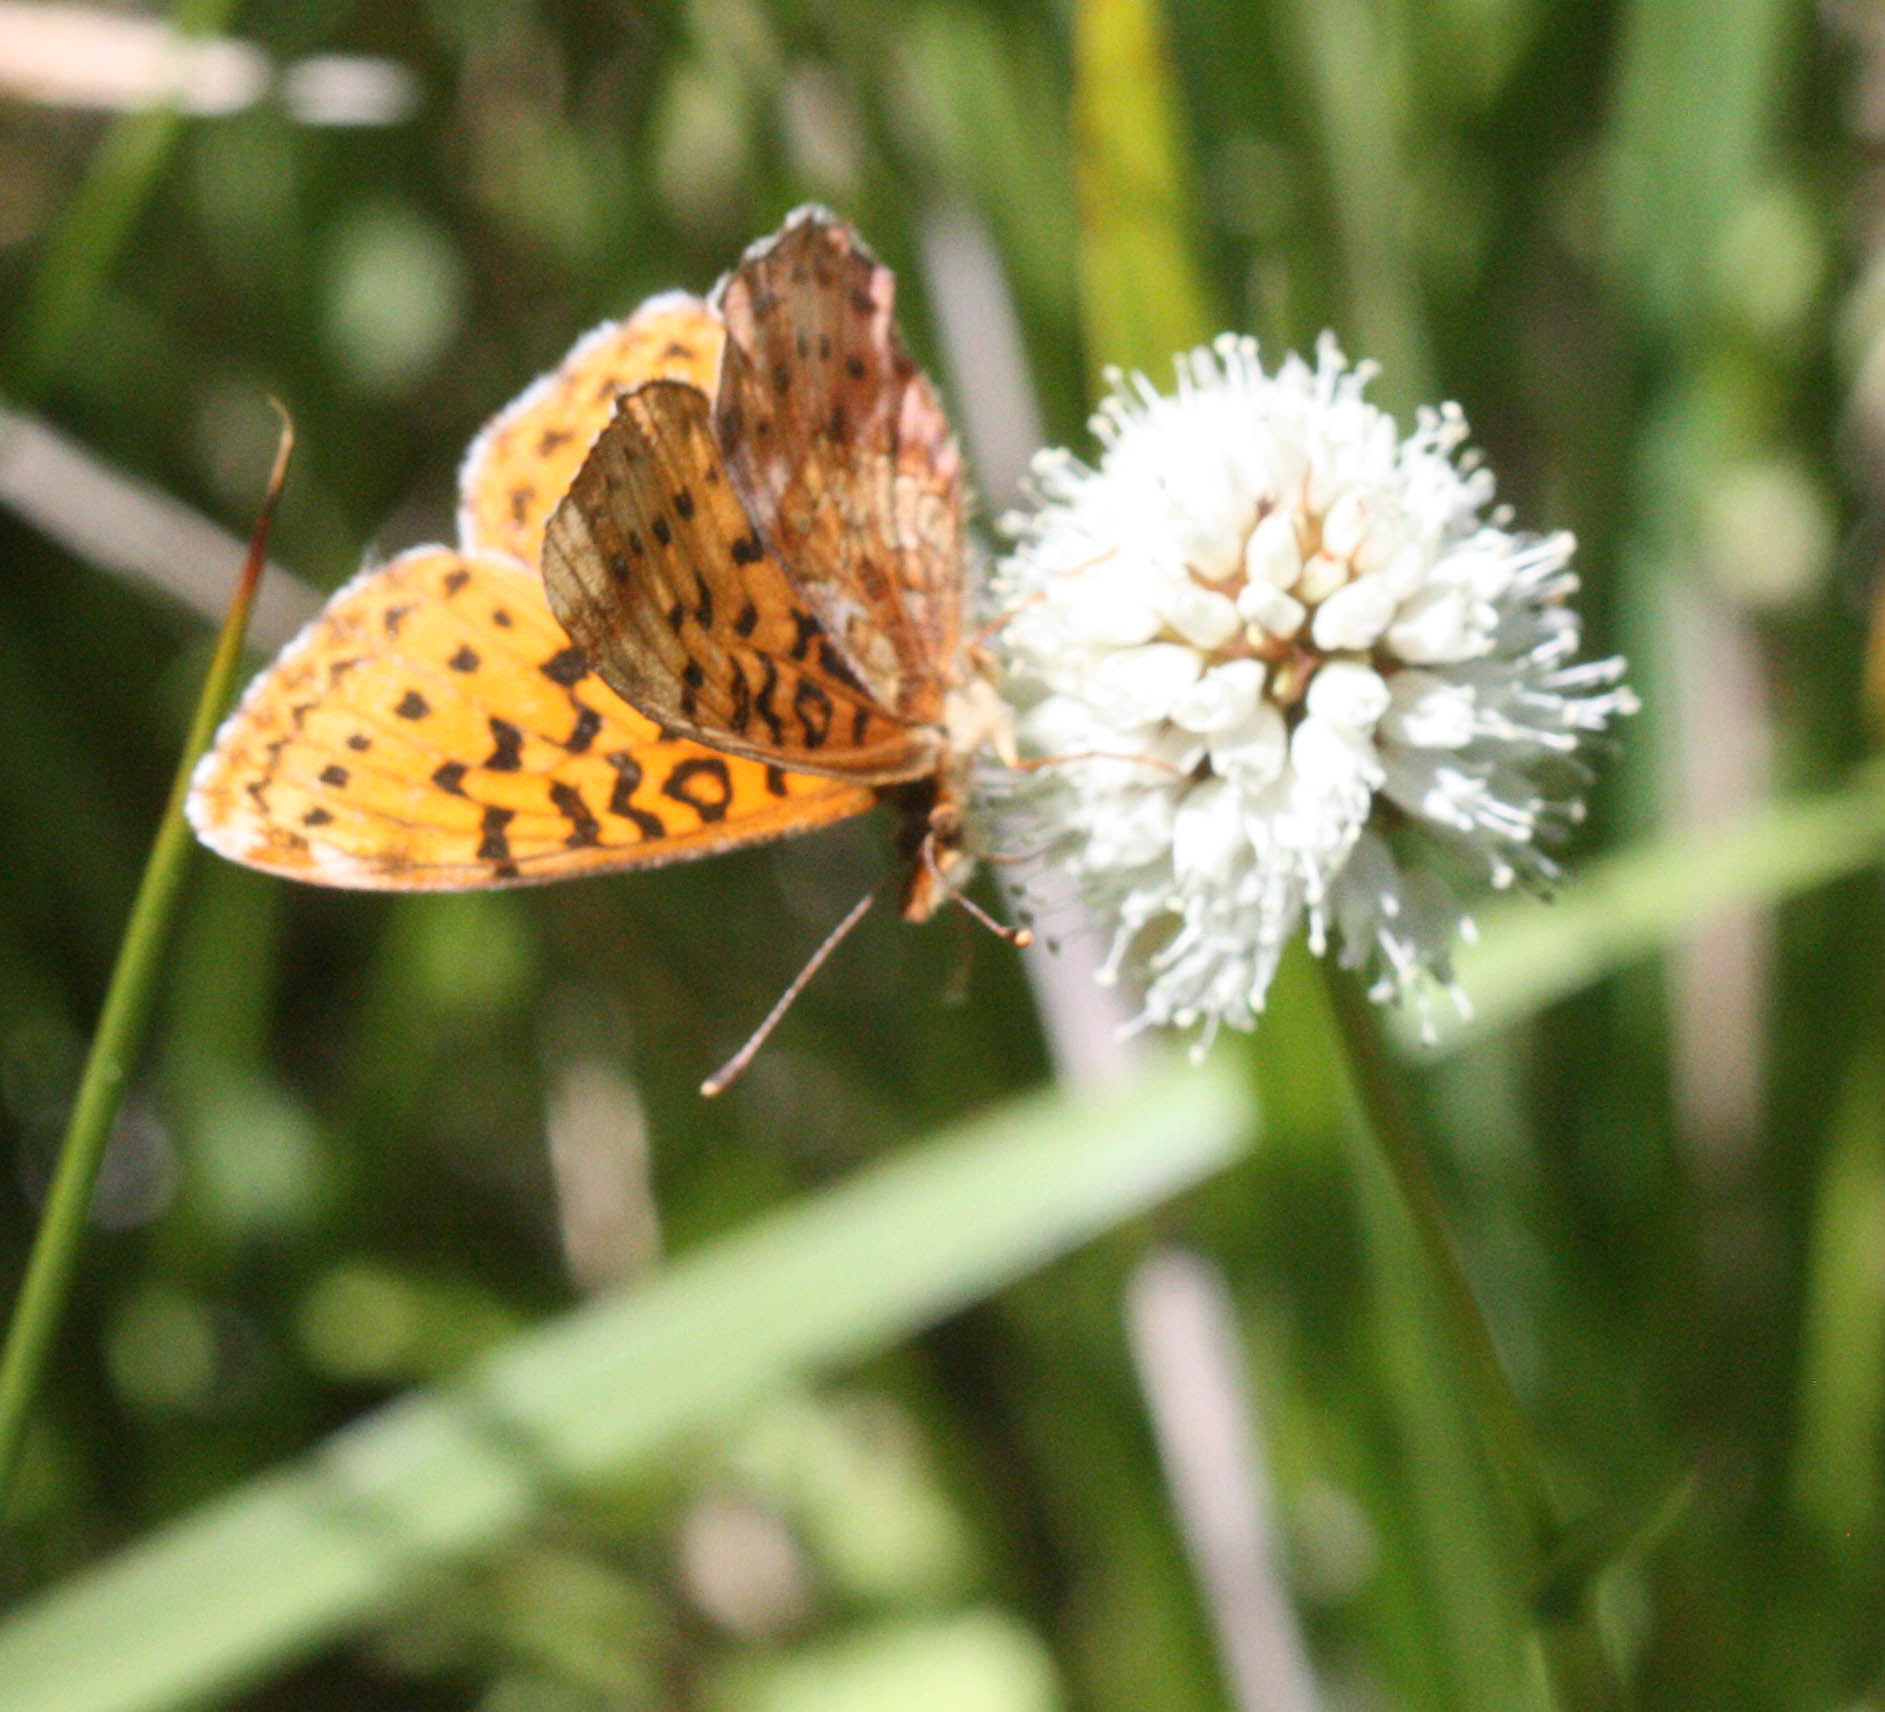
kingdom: Animalia
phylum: Arthropoda
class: Insecta
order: Lepidoptera
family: Nymphalidae
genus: Boloria
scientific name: Boloria epithore
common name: Pacific fritillary
